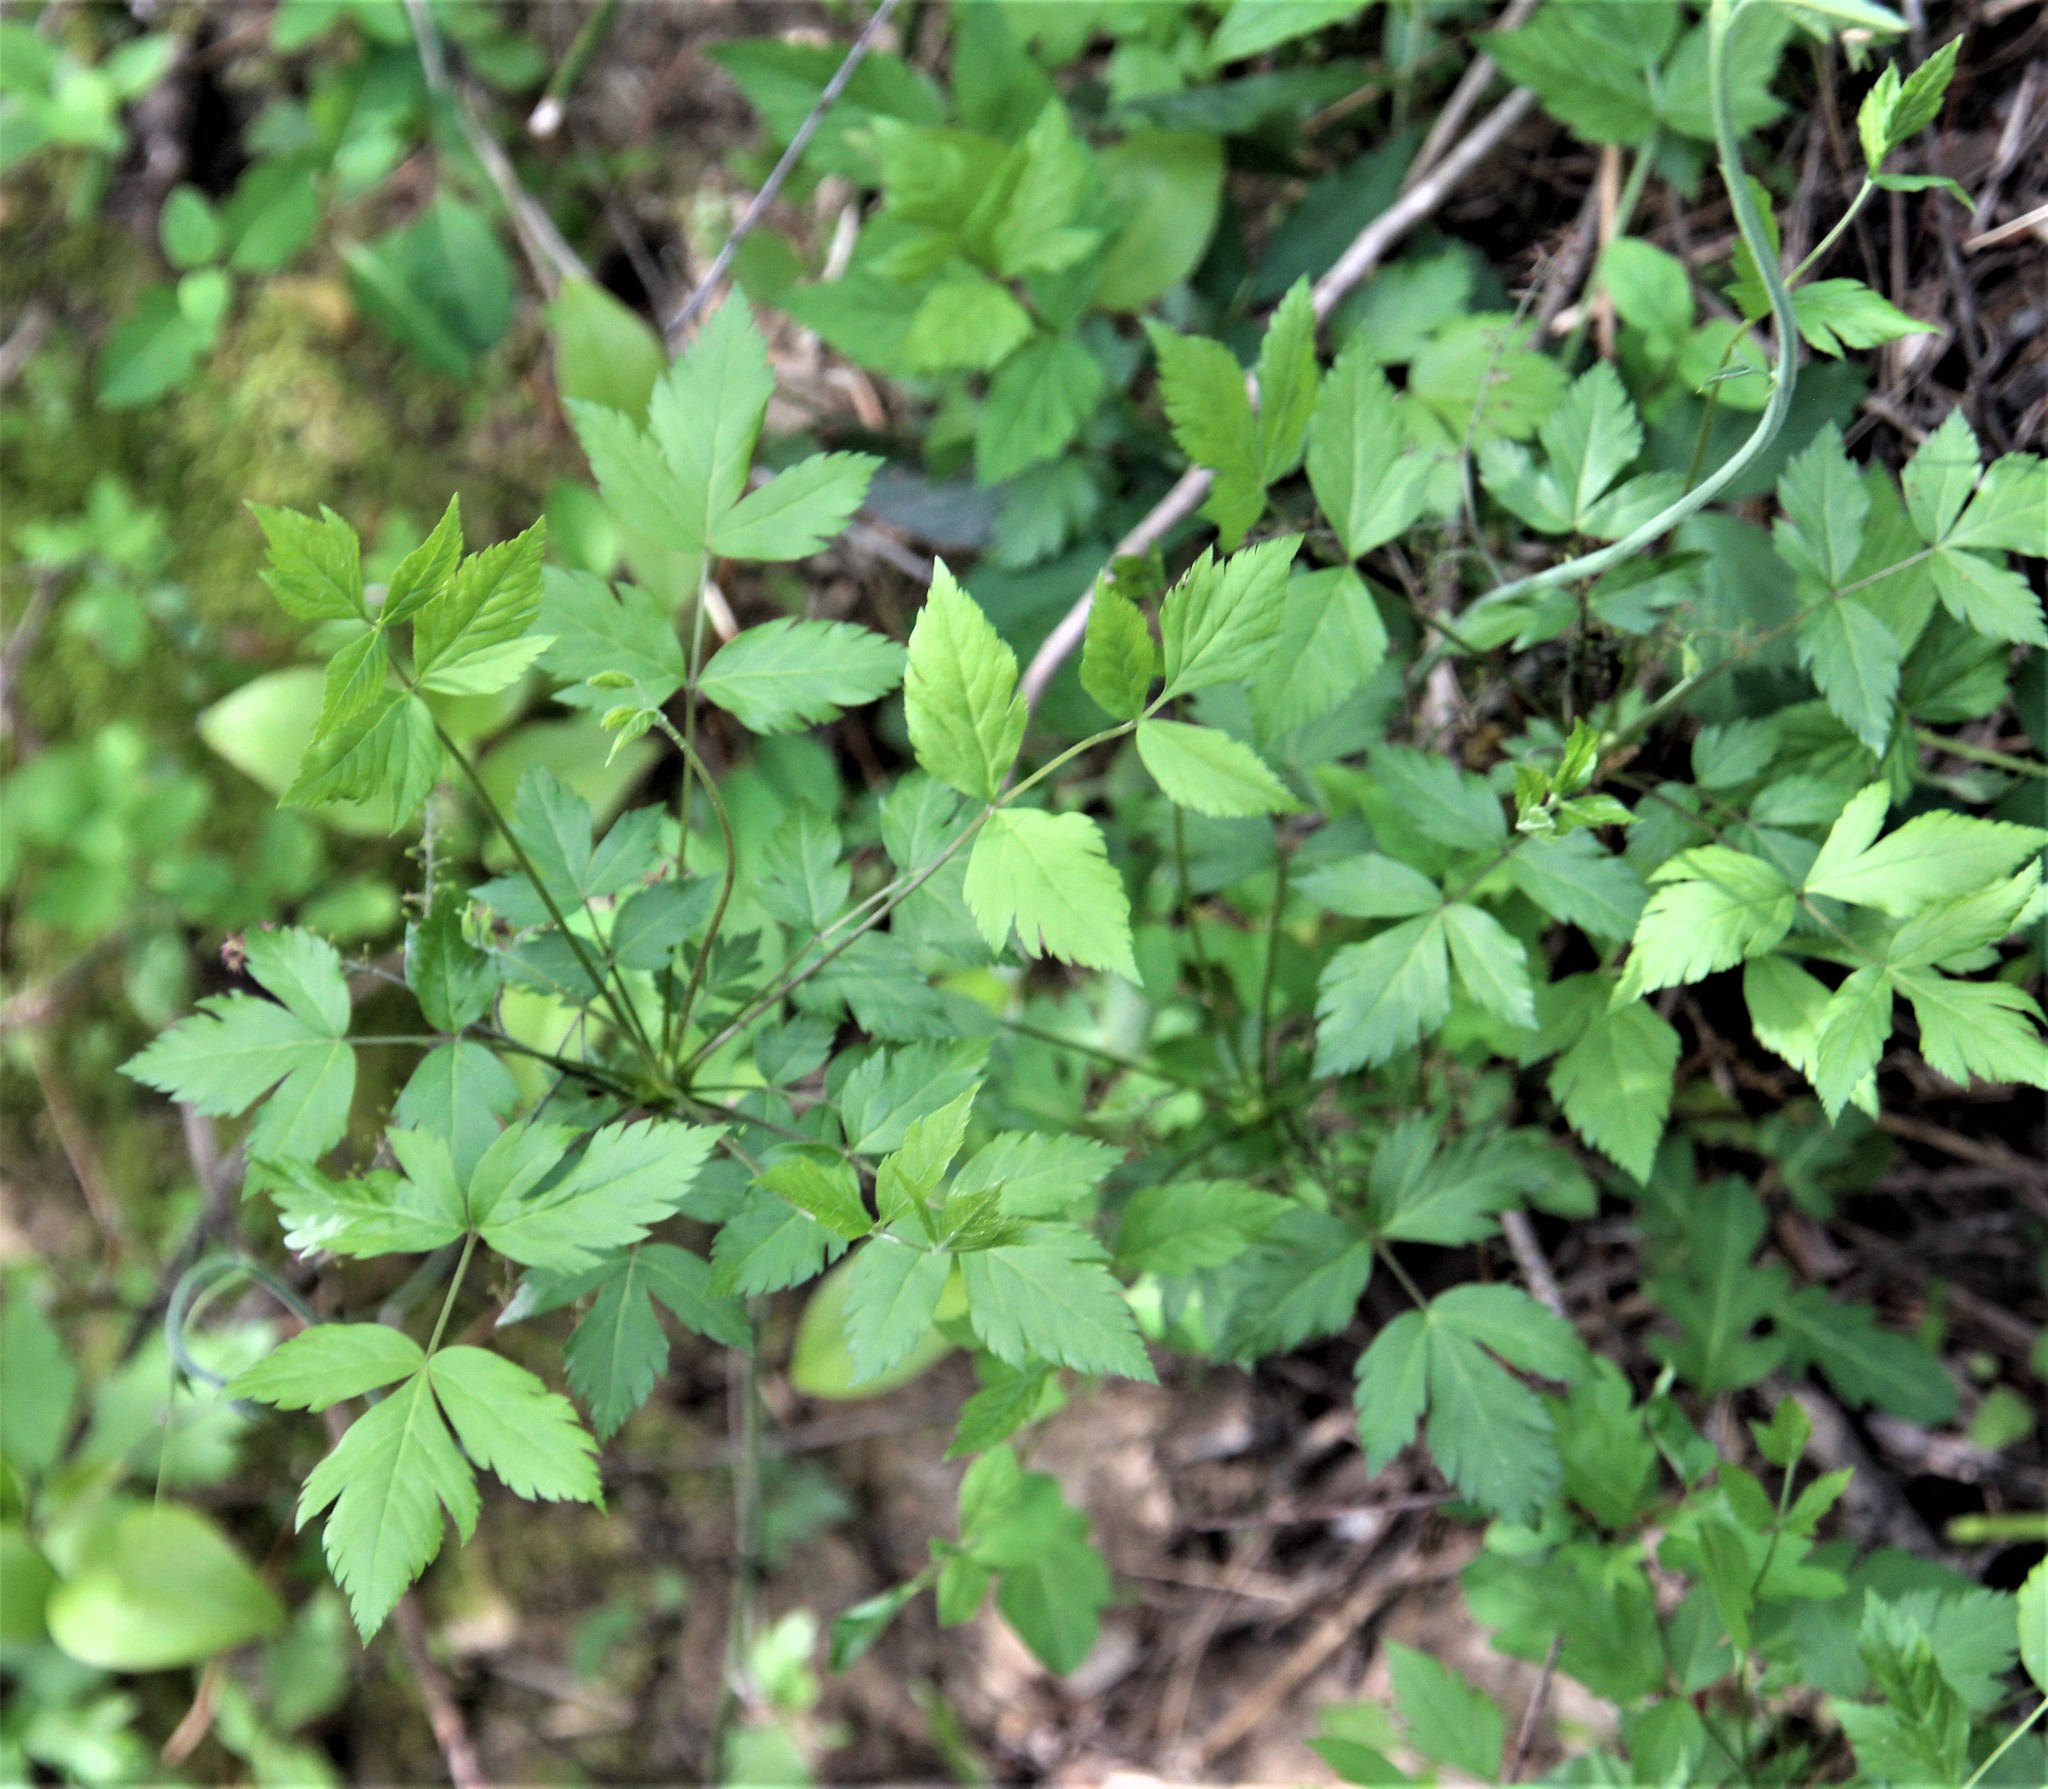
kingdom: Plantae
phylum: Tracheophyta
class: Magnoliopsida
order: Ranunculales
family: Ranunculaceae
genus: Xanthorhiza
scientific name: Xanthorhiza simplicissima
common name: Yellowroot
